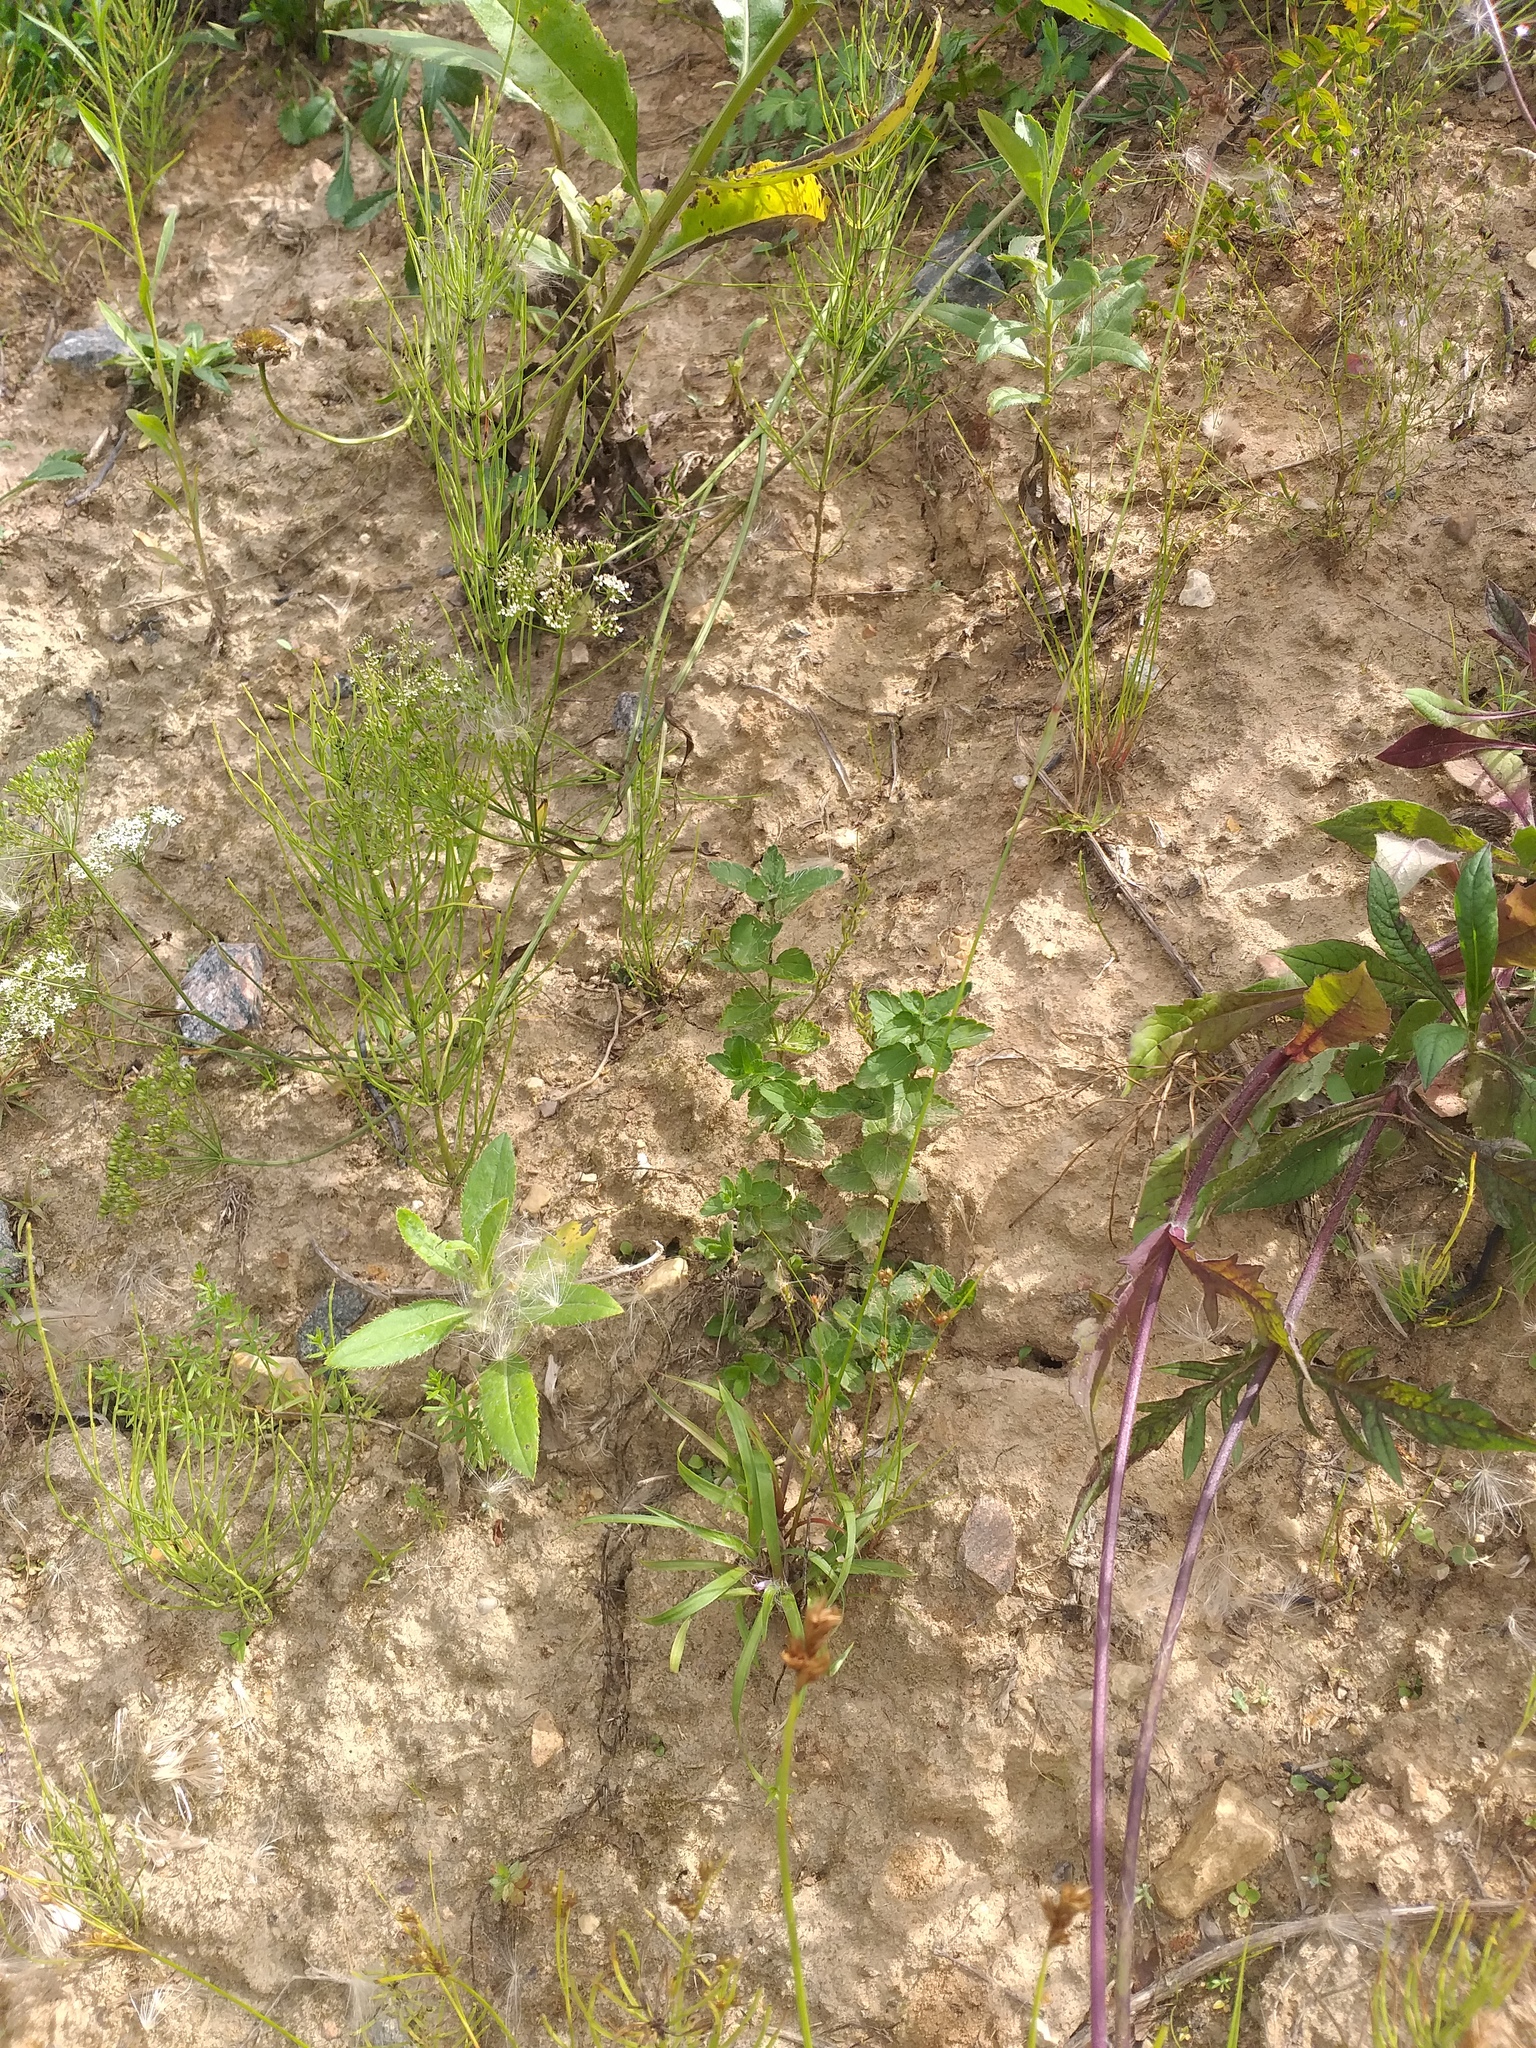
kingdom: Plantae
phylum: Tracheophyta
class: Magnoliopsida
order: Lamiales
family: Plantaginaceae
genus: Veronica
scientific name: Veronica chamaedrys
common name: Germander speedwell
